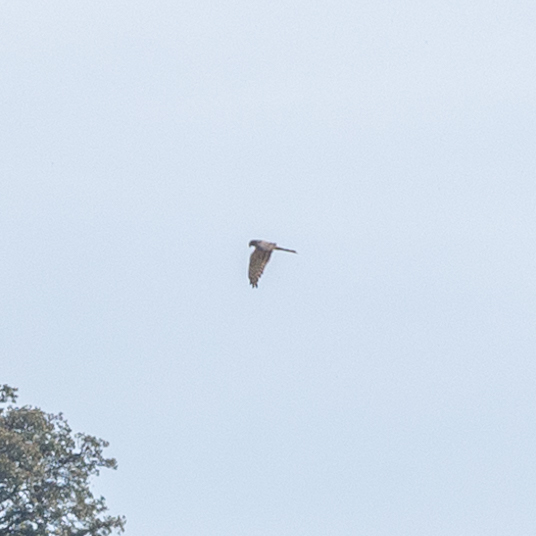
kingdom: Animalia
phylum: Chordata
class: Aves
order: Accipitriformes
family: Accipitridae
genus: Circus
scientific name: Circus pygargus
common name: Montagu's harrier
